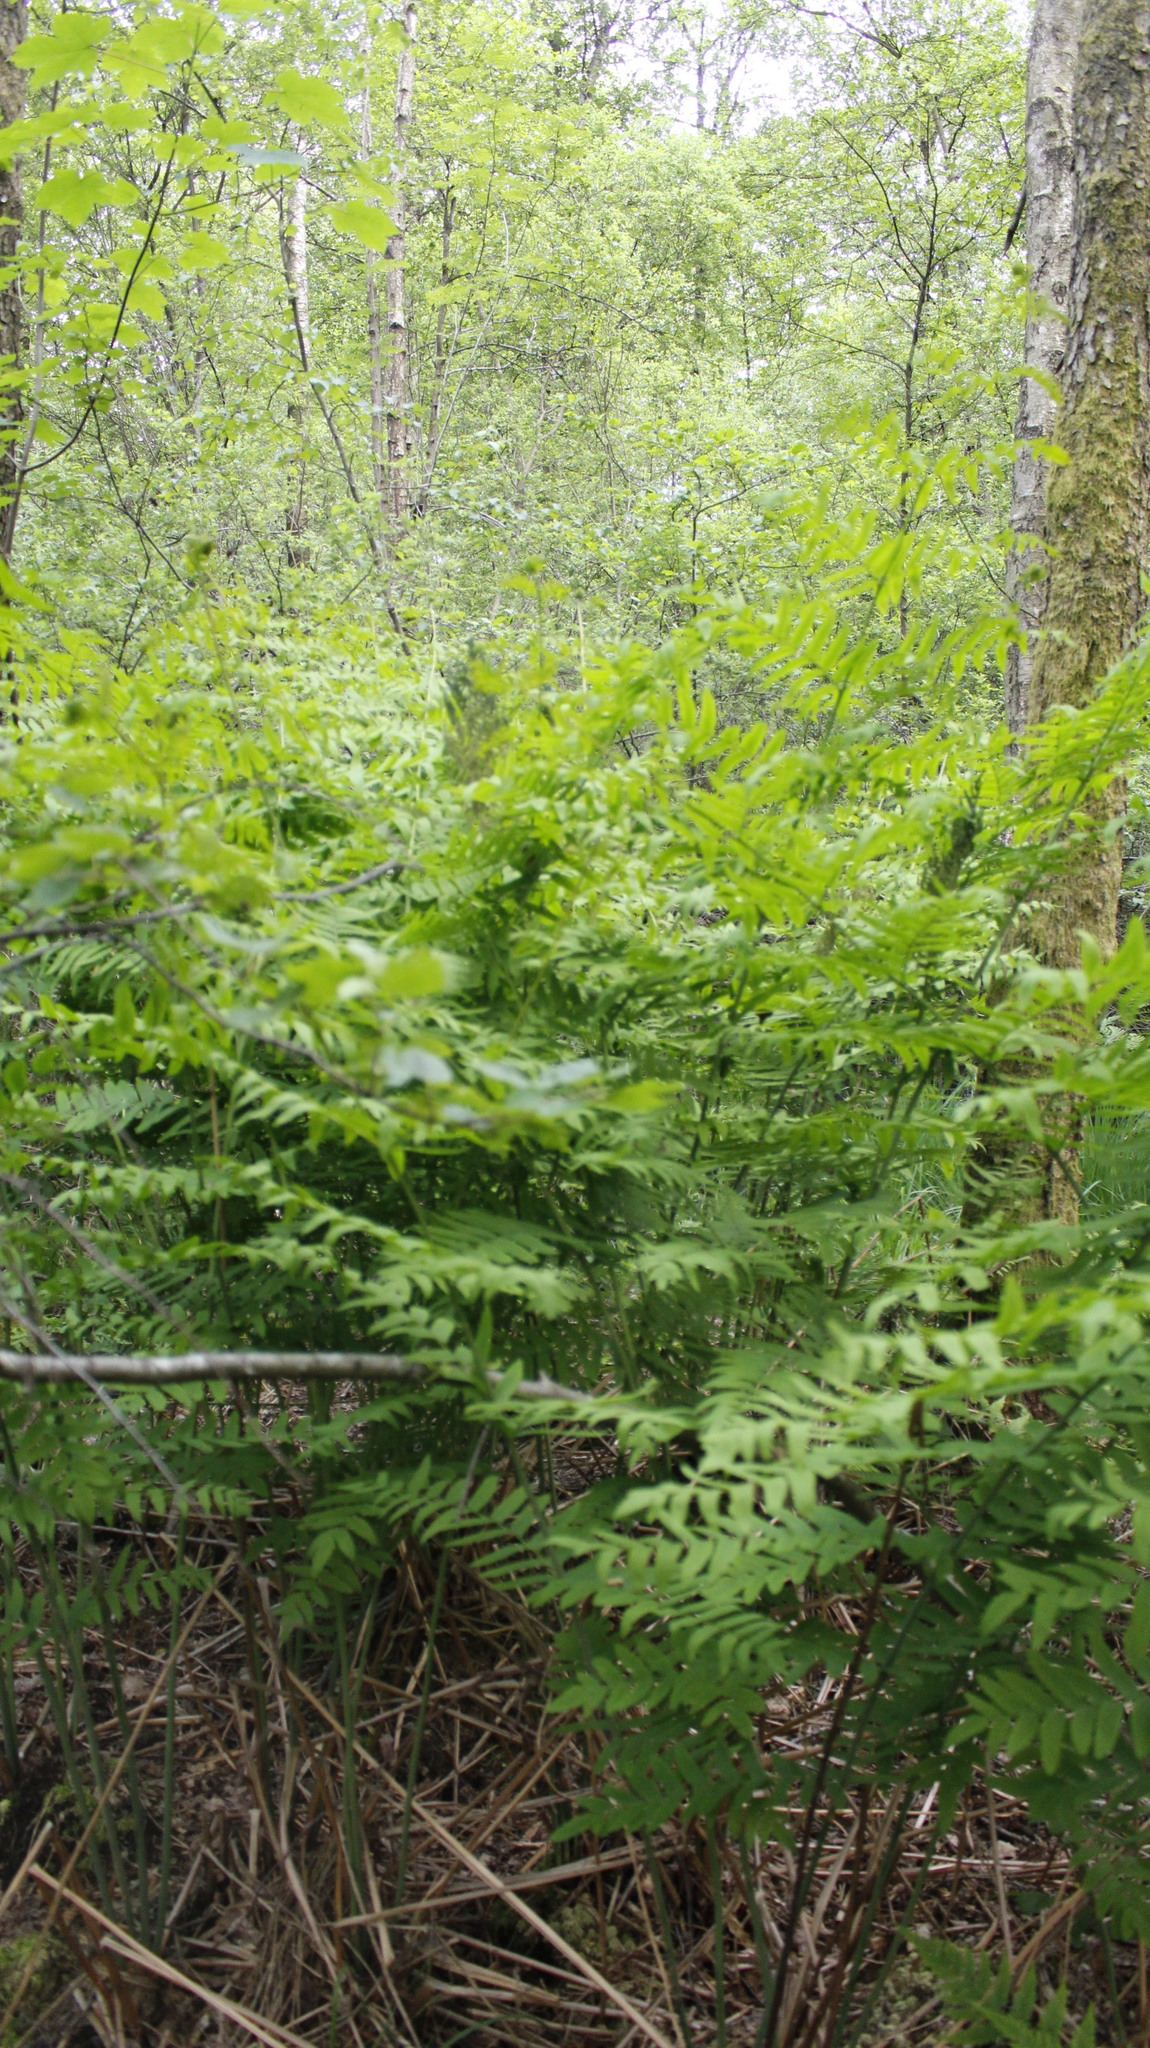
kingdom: Plantae
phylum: Tracheophyta
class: Polypodiopsida
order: Osmundales
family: Osmundaceae
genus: Osmunda
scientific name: Osmunda regalis
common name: Royal fern
